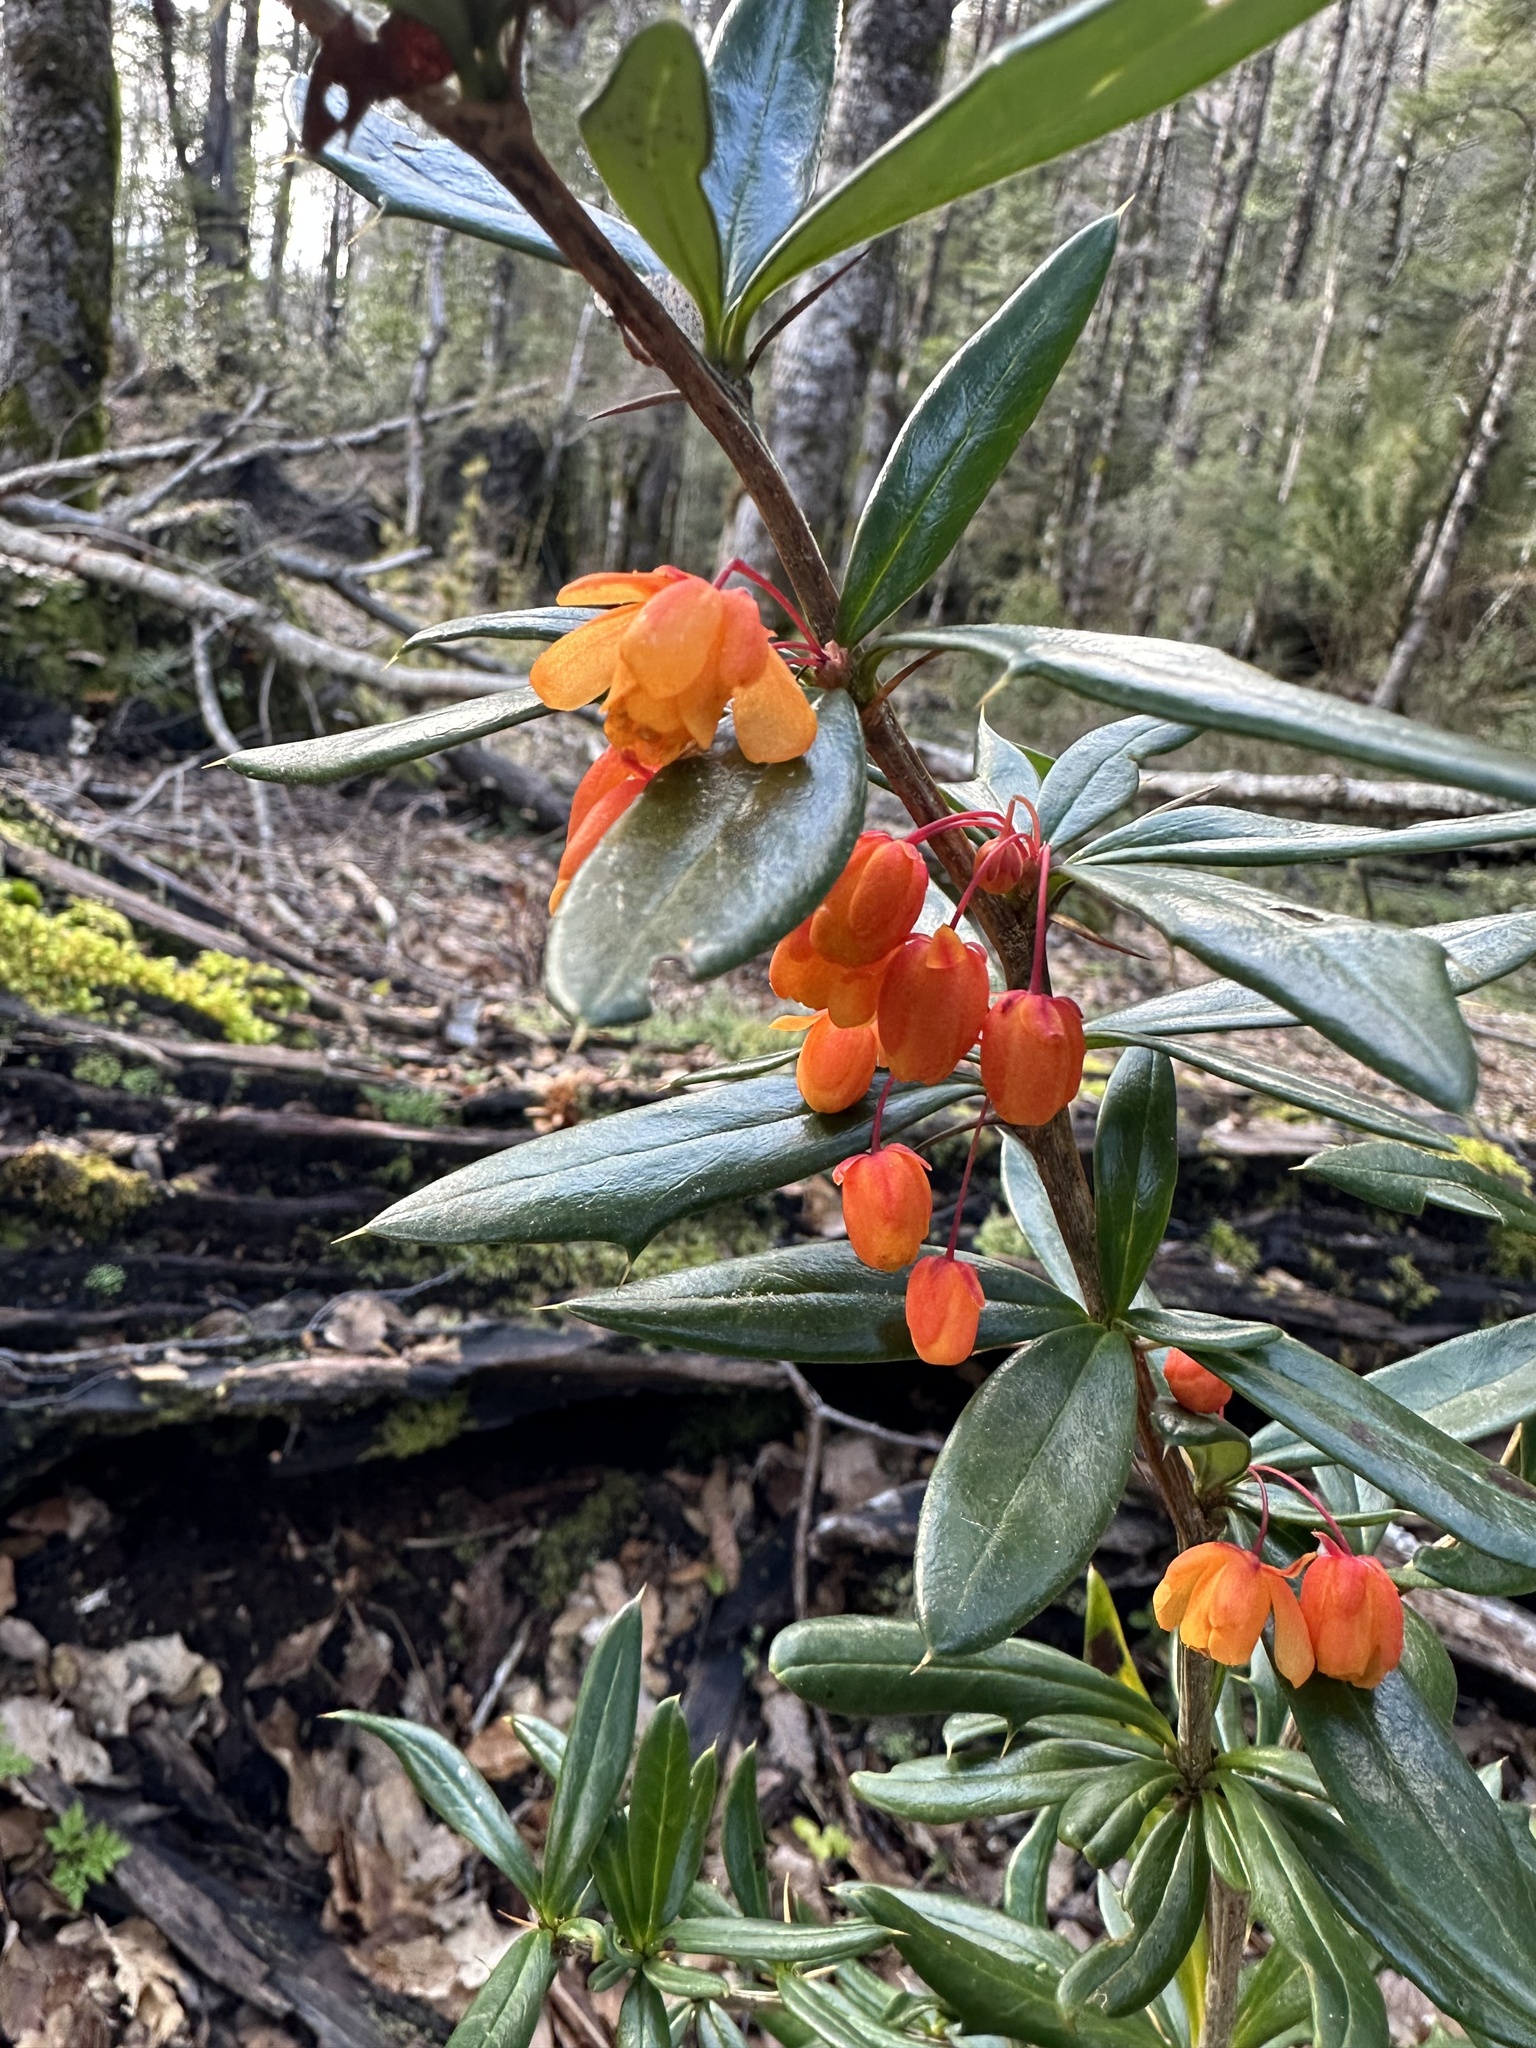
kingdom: Plantae
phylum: Tracheophyta
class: Magnoliopsida
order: Ranunculales
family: Berberidaceae
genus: Berberis
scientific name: Berberis trigona
